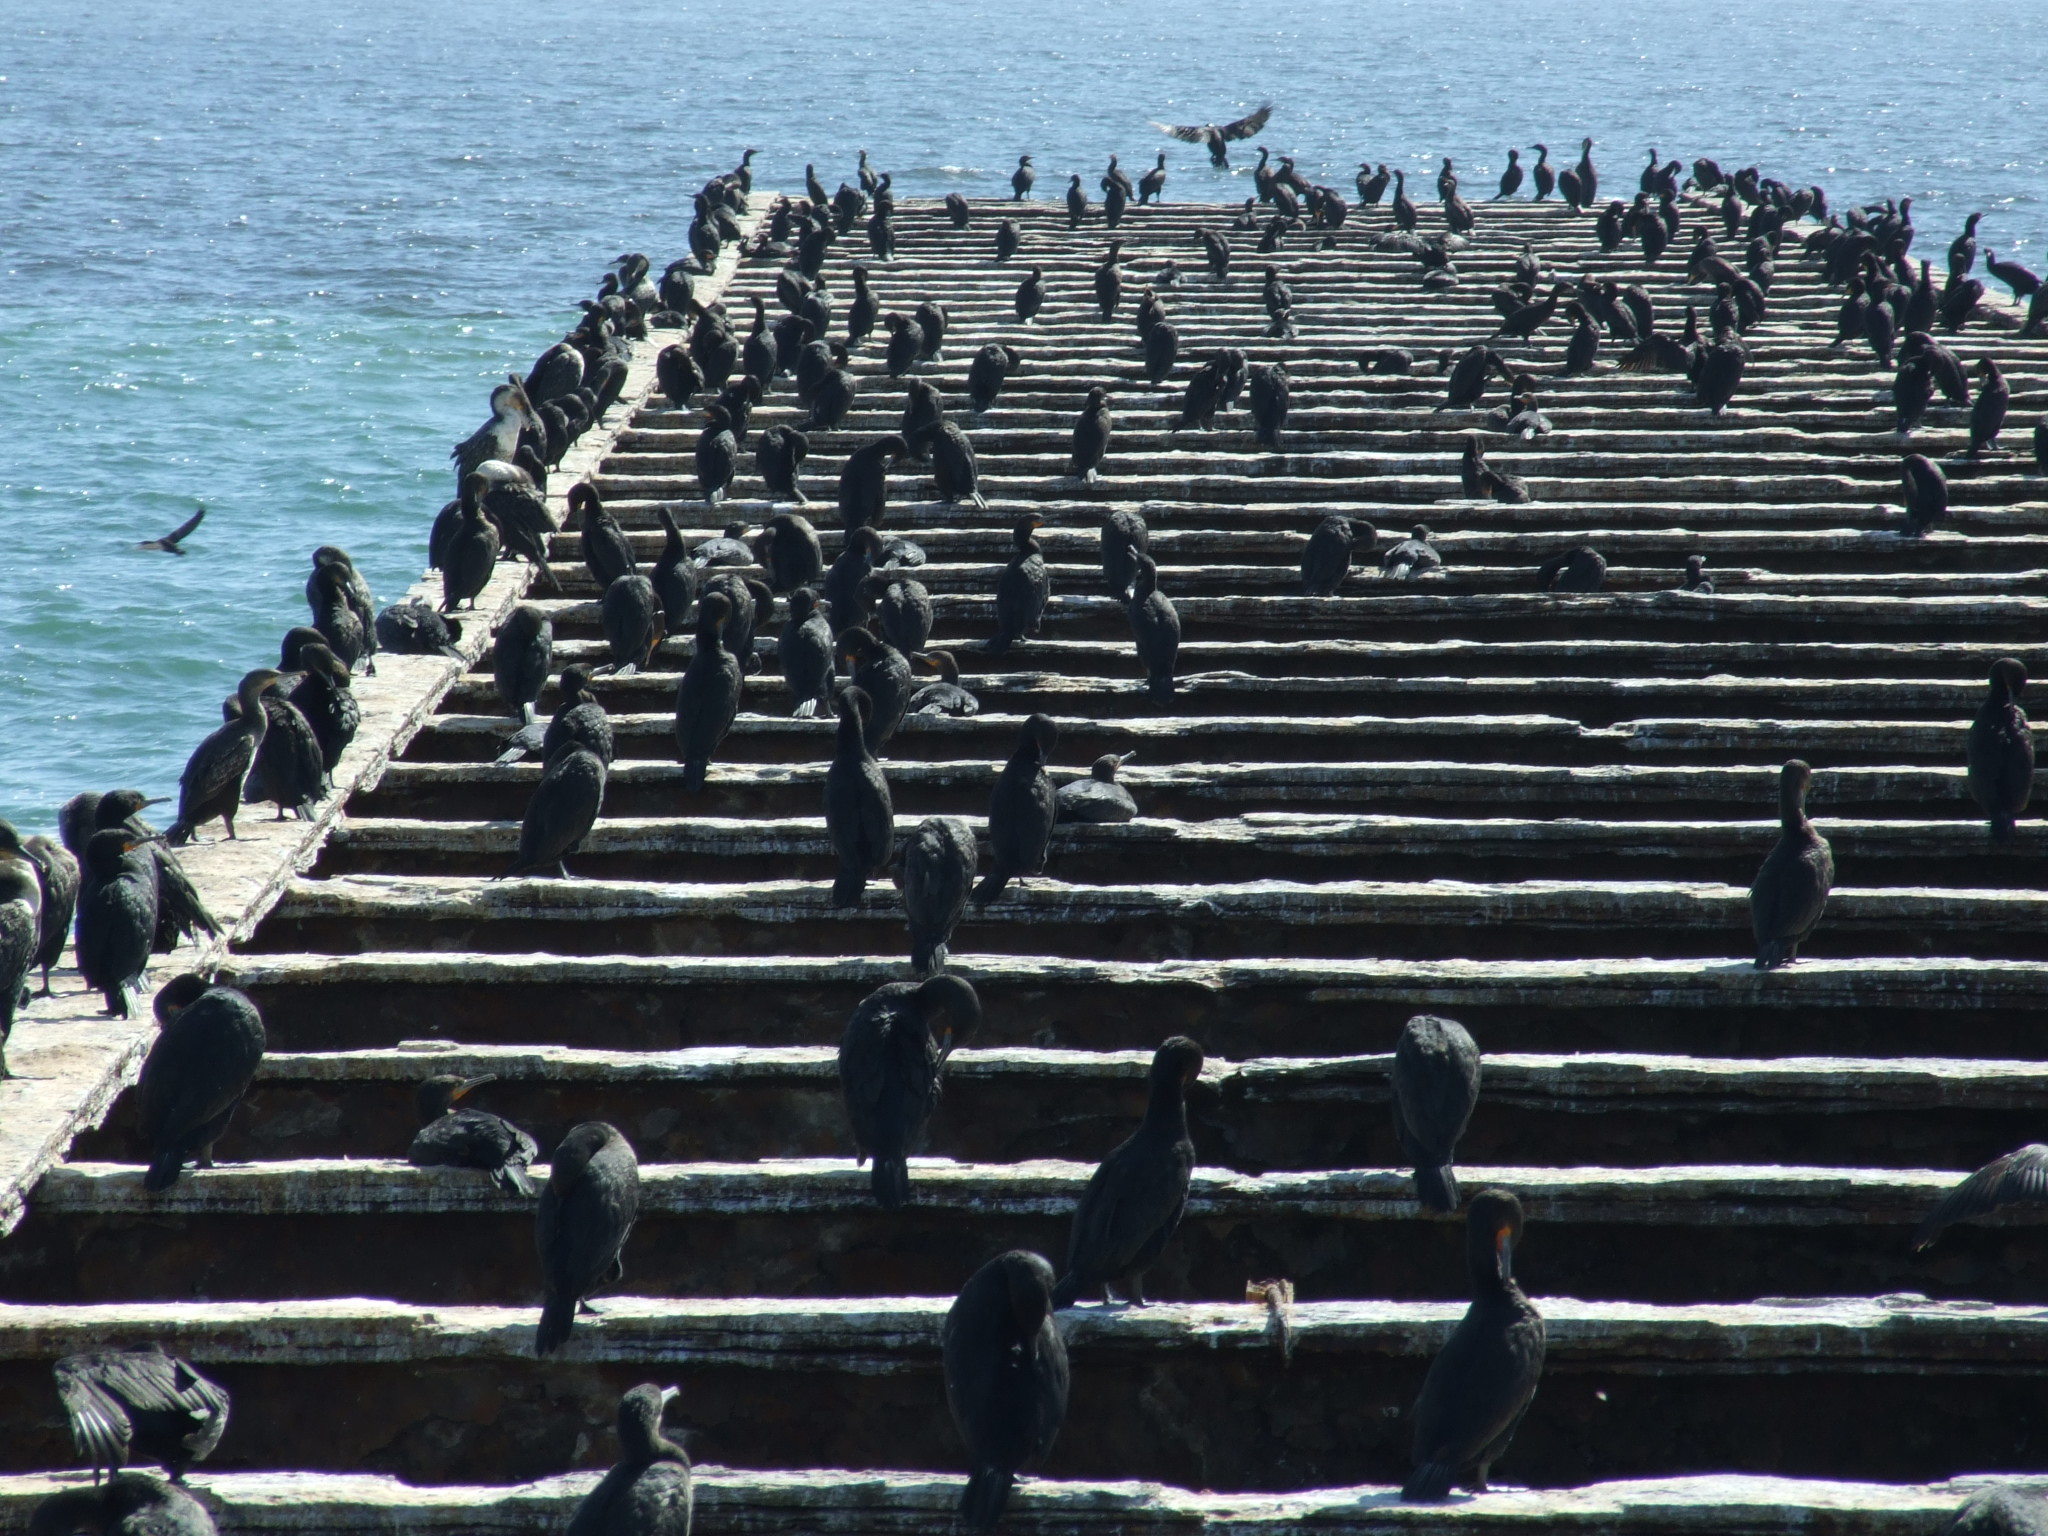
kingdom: Animalia
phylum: Chordata
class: Aves
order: Suliformes
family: Phalacrocoracidae
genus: Phalacrocorax
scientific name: Phalacrocorax capensis
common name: Cape cormorant
